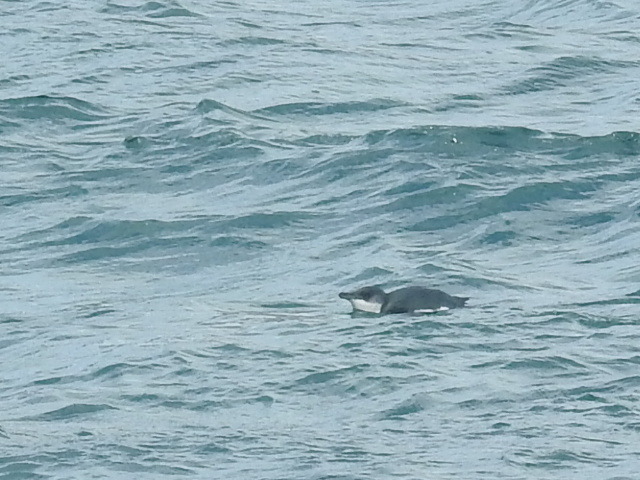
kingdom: Animalia
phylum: Chordata
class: Aves
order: Sphenisciformes
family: Spheniscidae
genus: Eudyptula
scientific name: Eudyptula minor
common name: Little penguin
